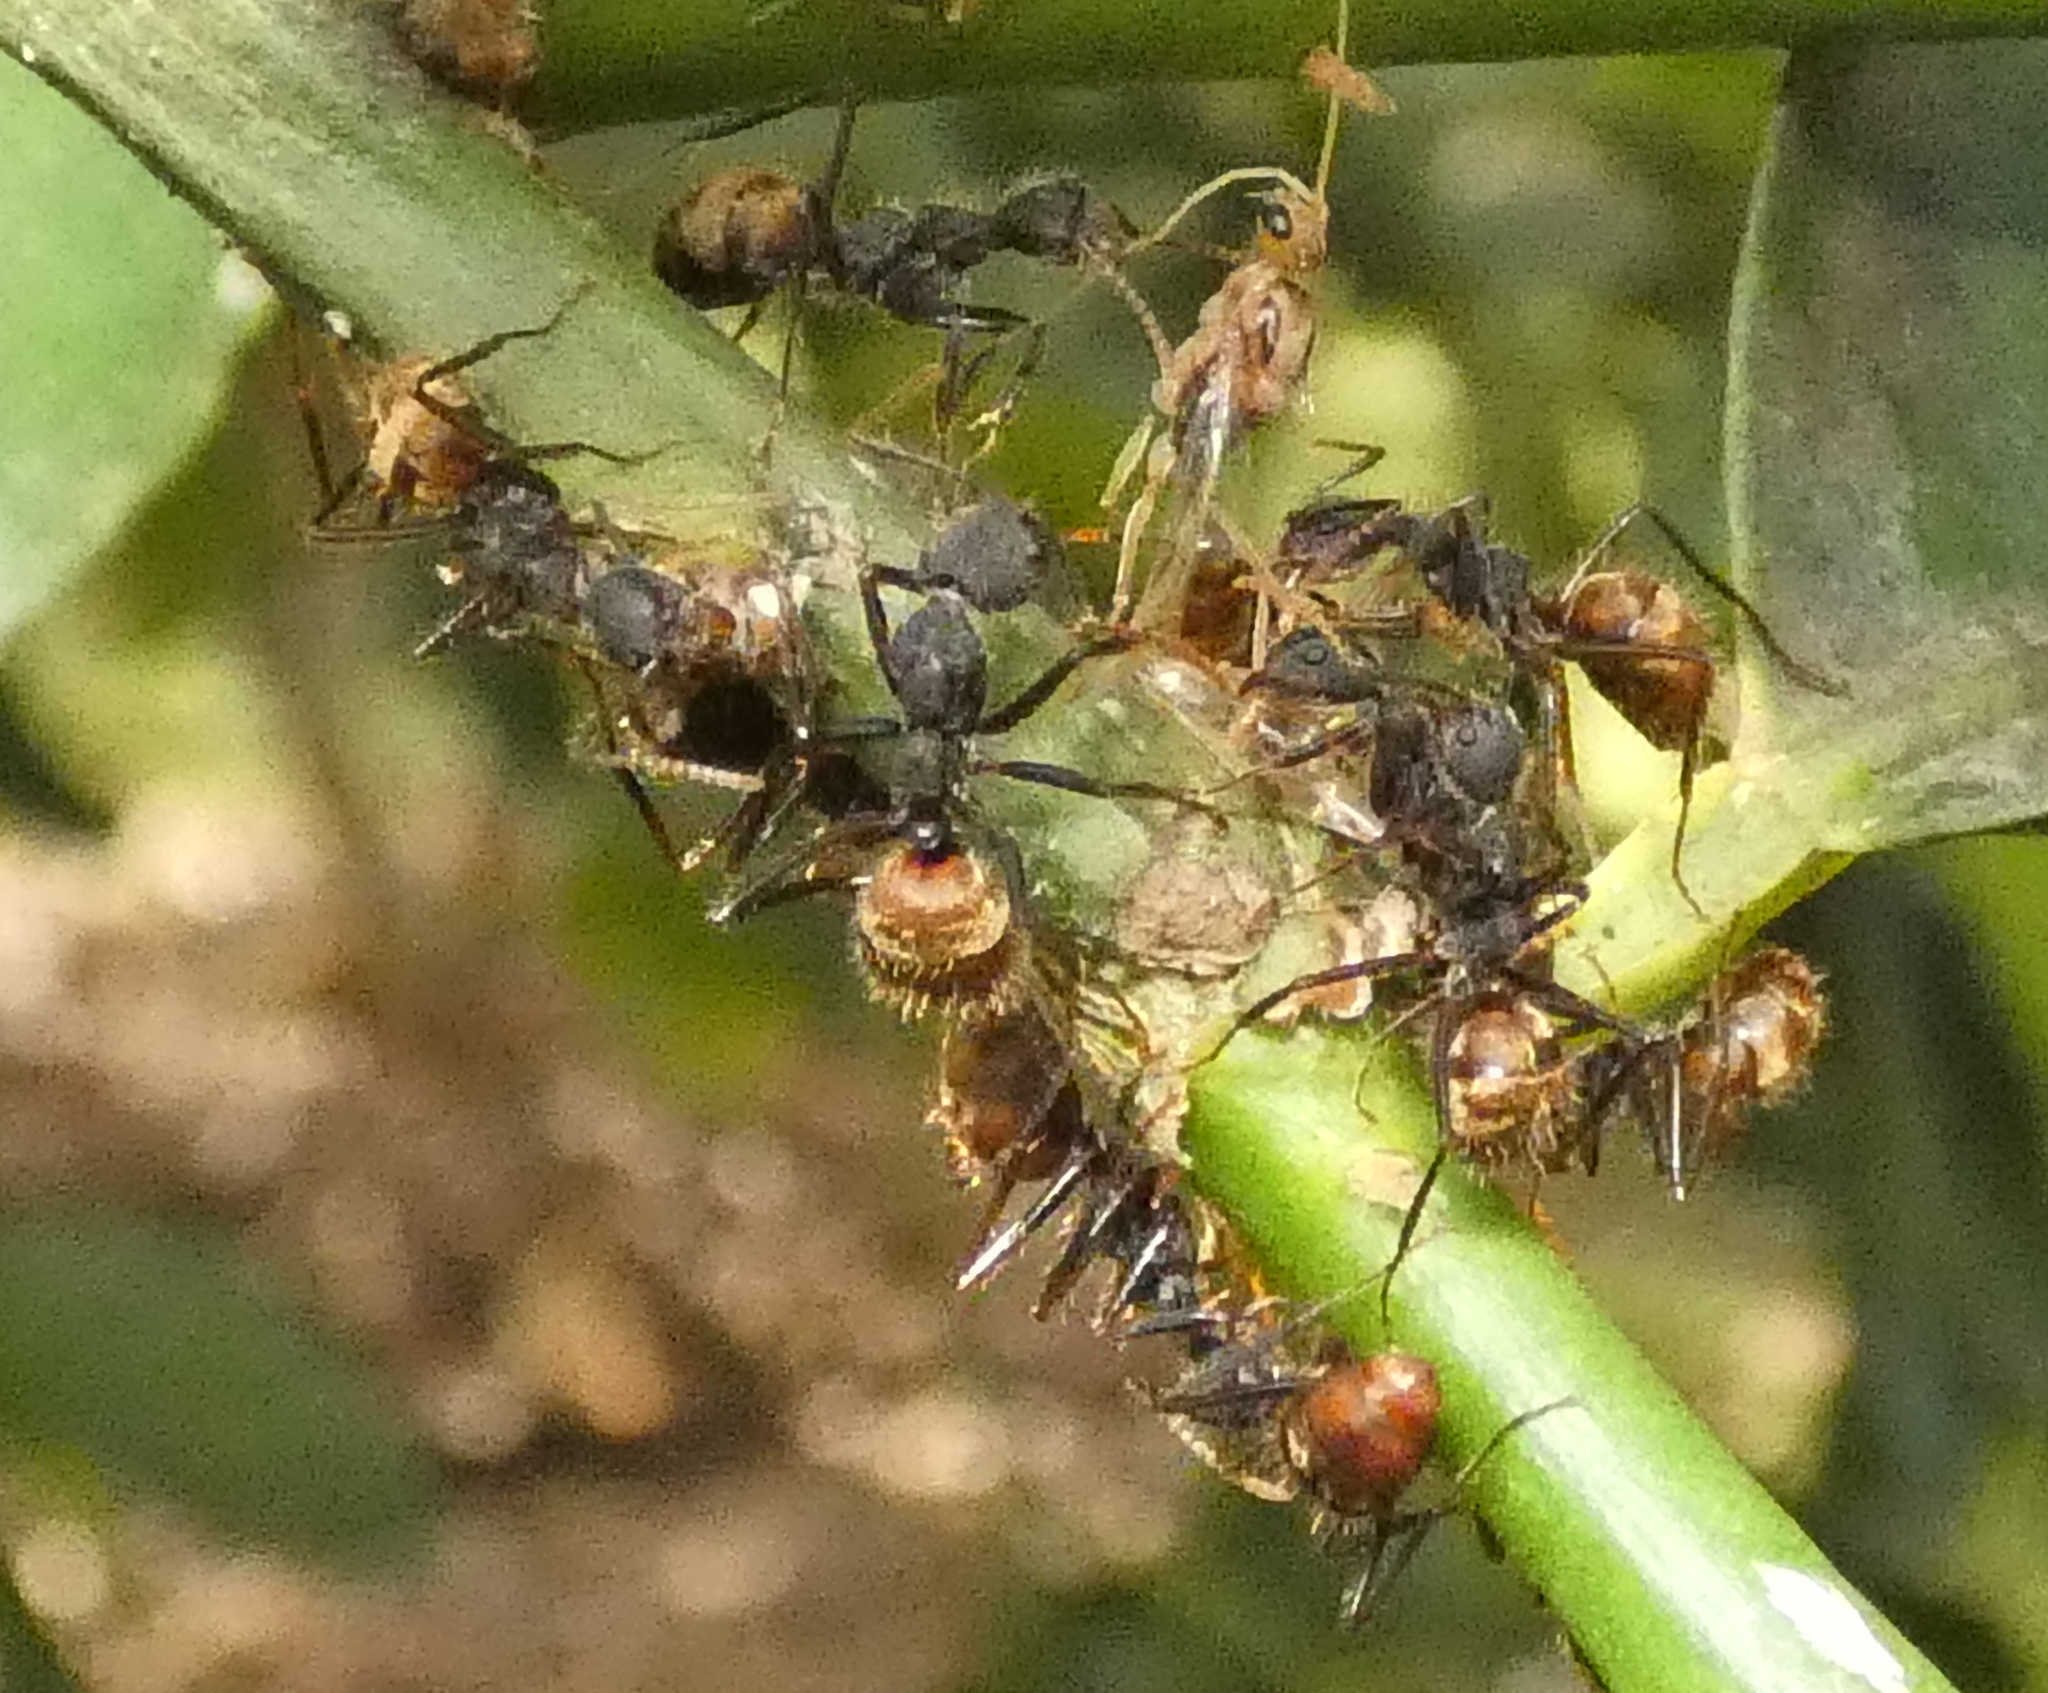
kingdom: Animalia
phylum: Arthropoda
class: Insecta
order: Hymenoptera
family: Formicidae
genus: Dolichoderus
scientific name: Dolichoderus bidens
